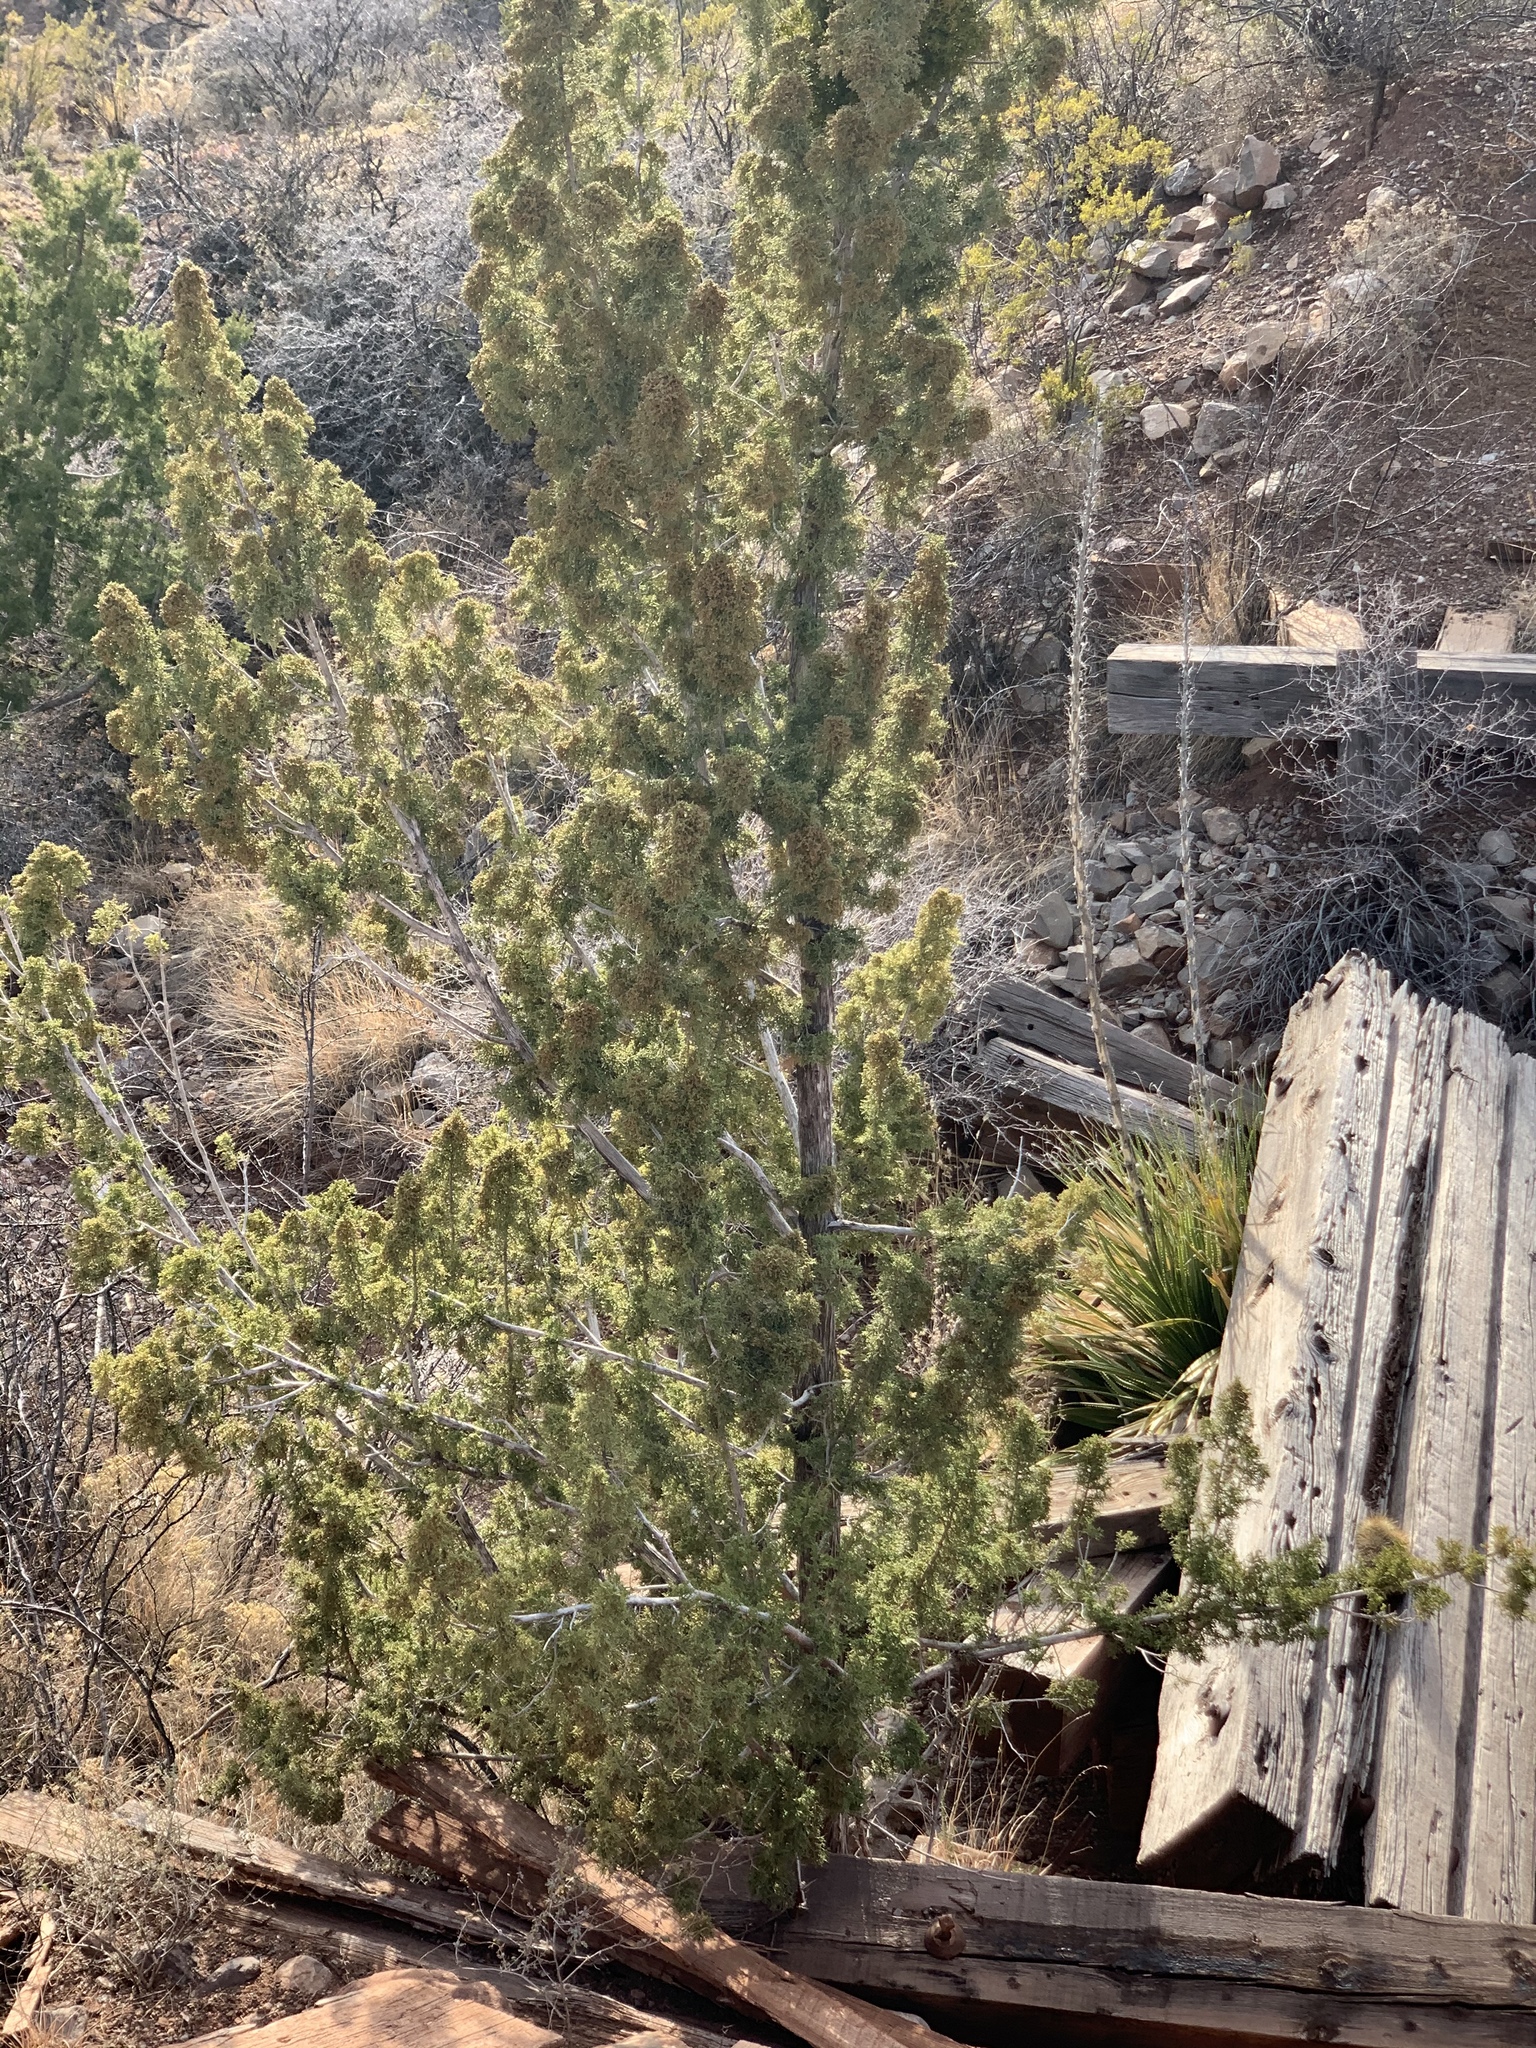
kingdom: Plantae
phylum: Tracheophyta
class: Pinopsida
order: Pinales
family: Cupressaceae
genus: Juniperus
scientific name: Juniperus monosperma
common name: One-seed juniper
